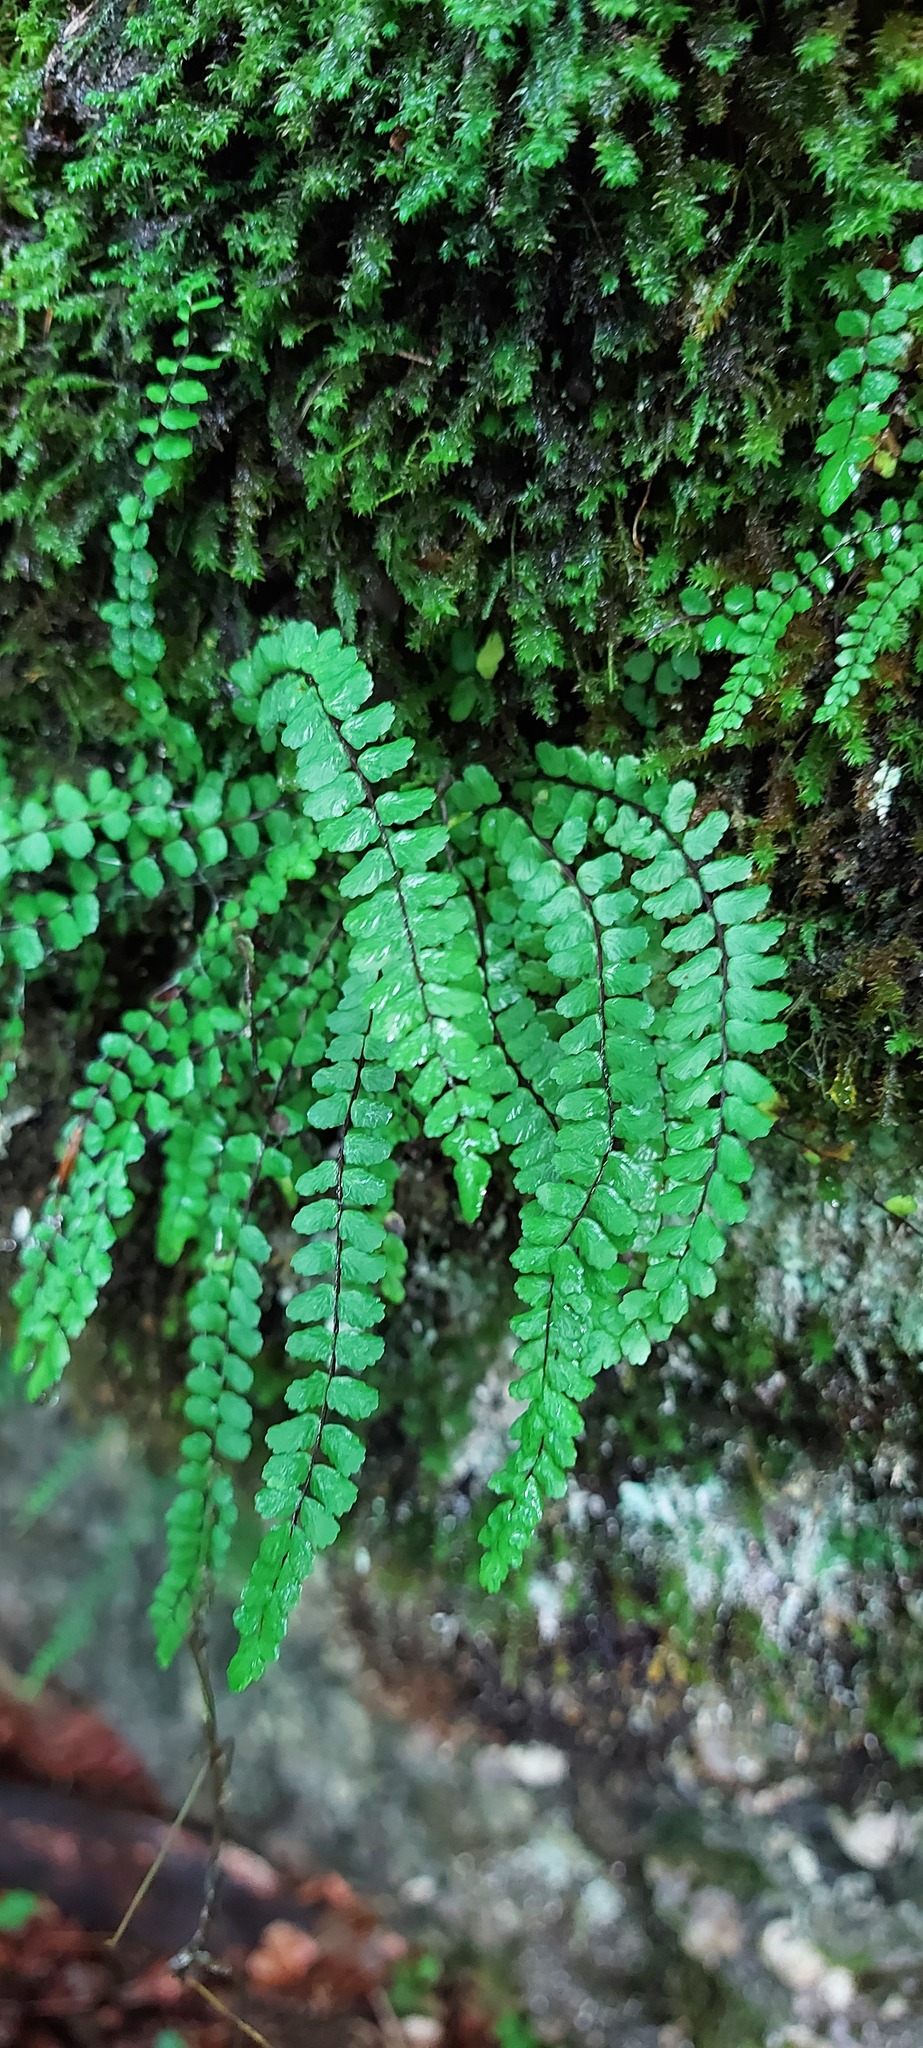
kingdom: Plantae
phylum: Tracheophyta
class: Polypodiopsida
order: Polypodiales
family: Aspleniaceae
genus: Asplenium
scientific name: Asplenium trichomanes
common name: Maidenhair spleenwort
